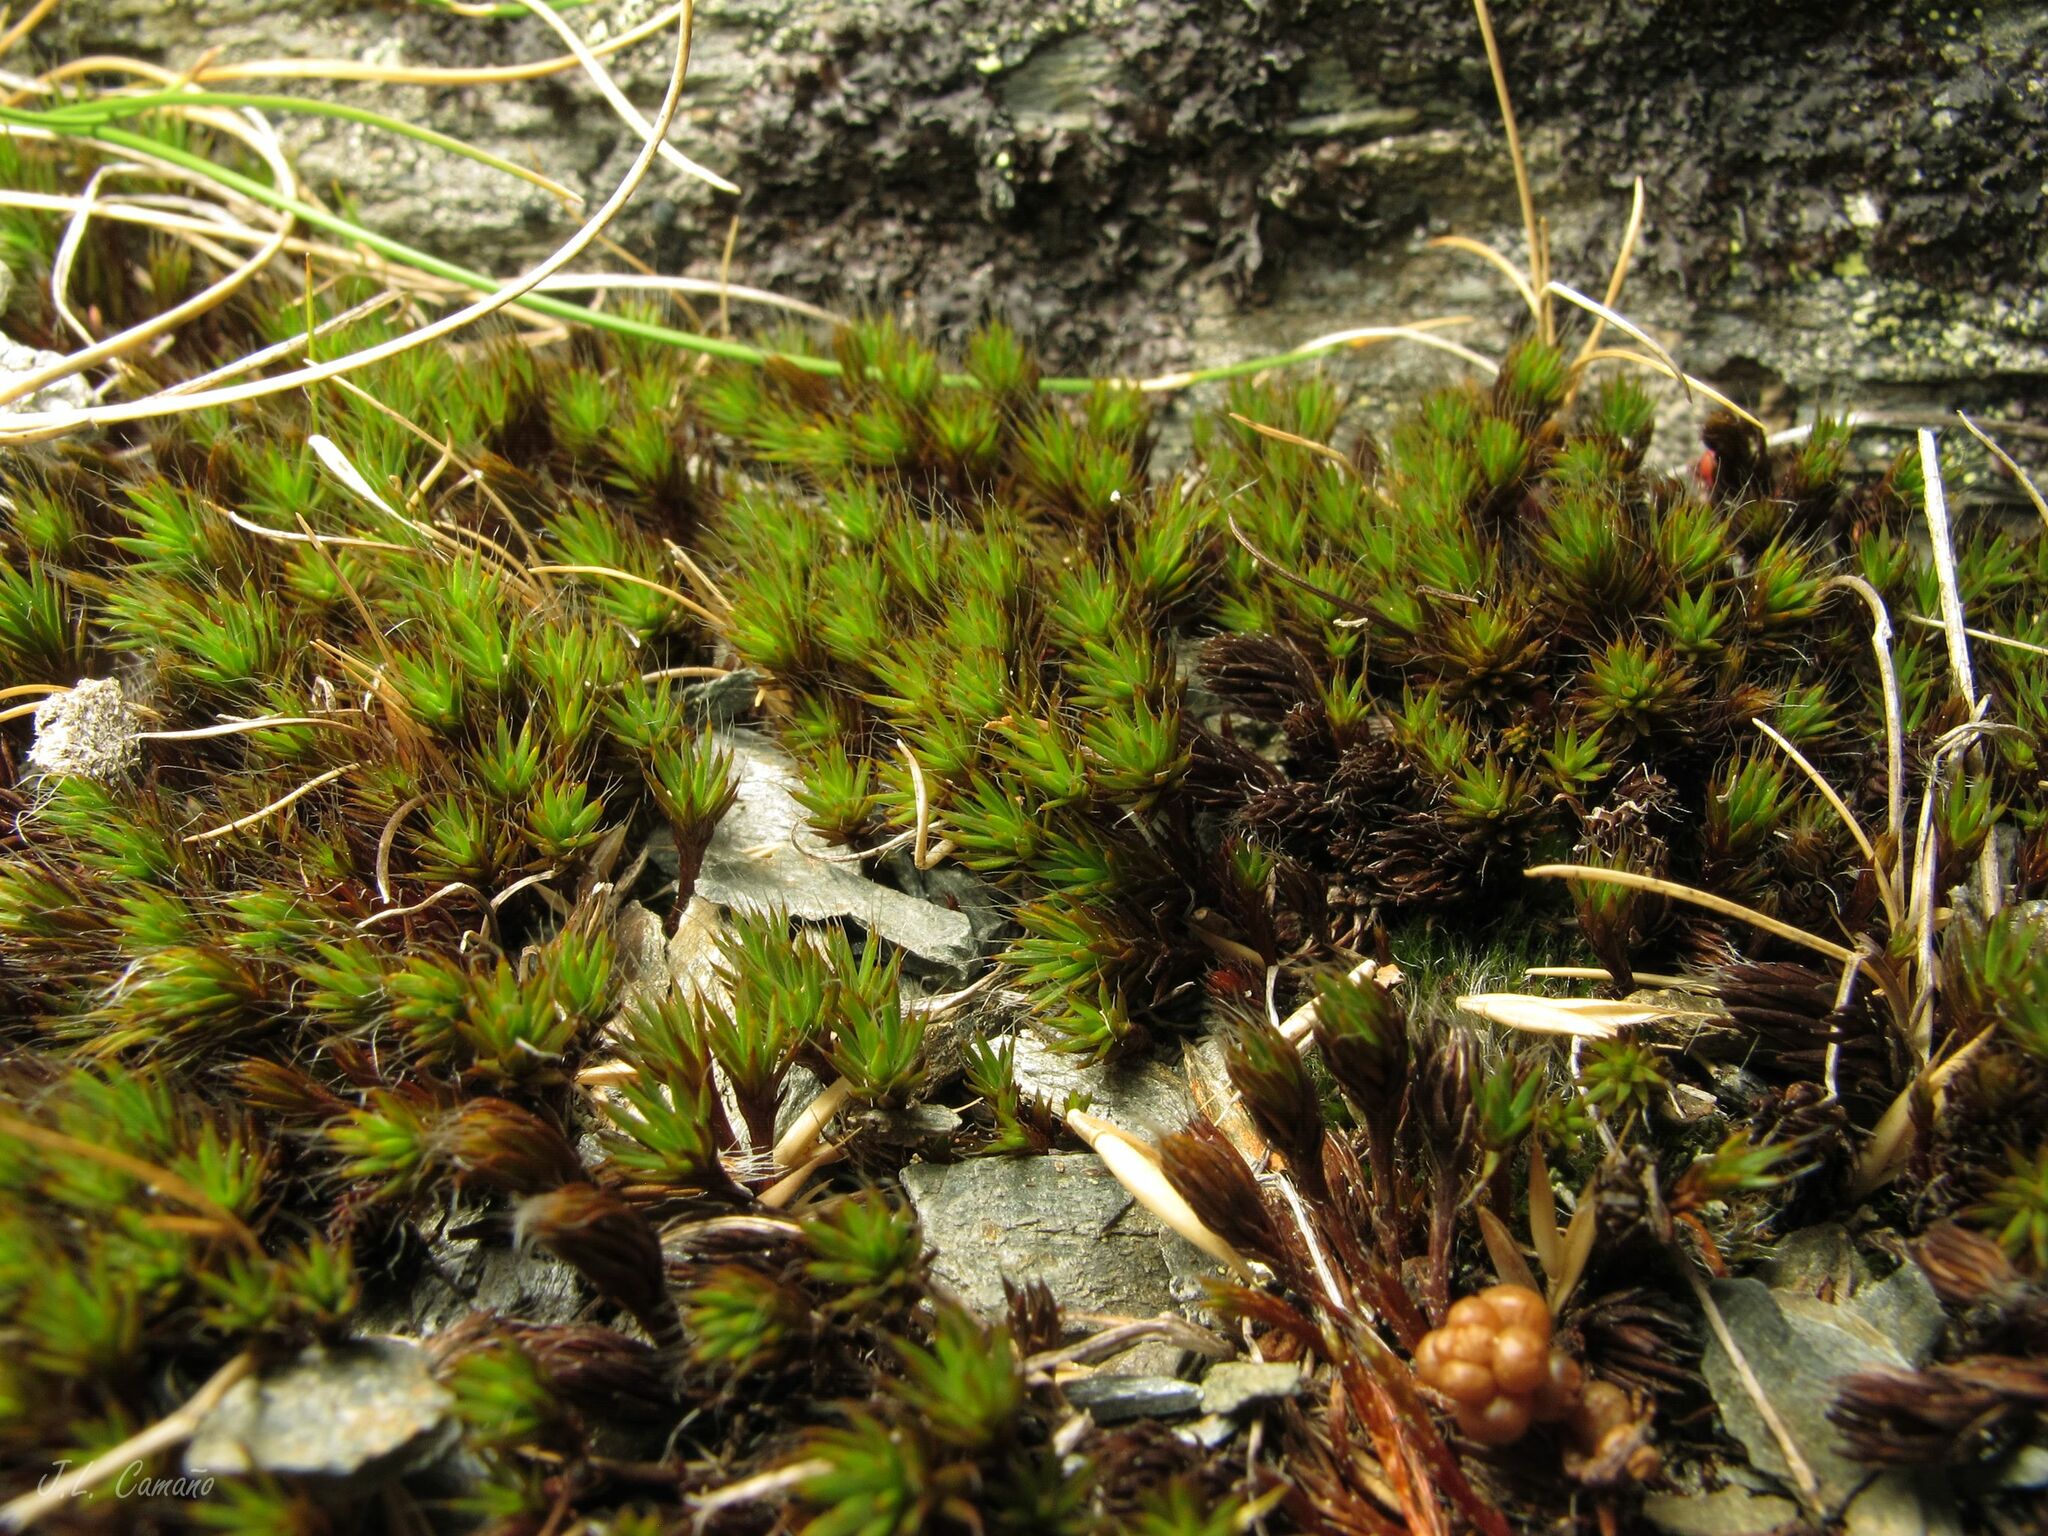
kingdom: Plantae
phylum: Bryophyta
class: Polytrichopsida
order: Polytrichales
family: Polytrichaceae
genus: Polytrichum
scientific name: Polytrichum piliferum
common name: Bristly haircap
